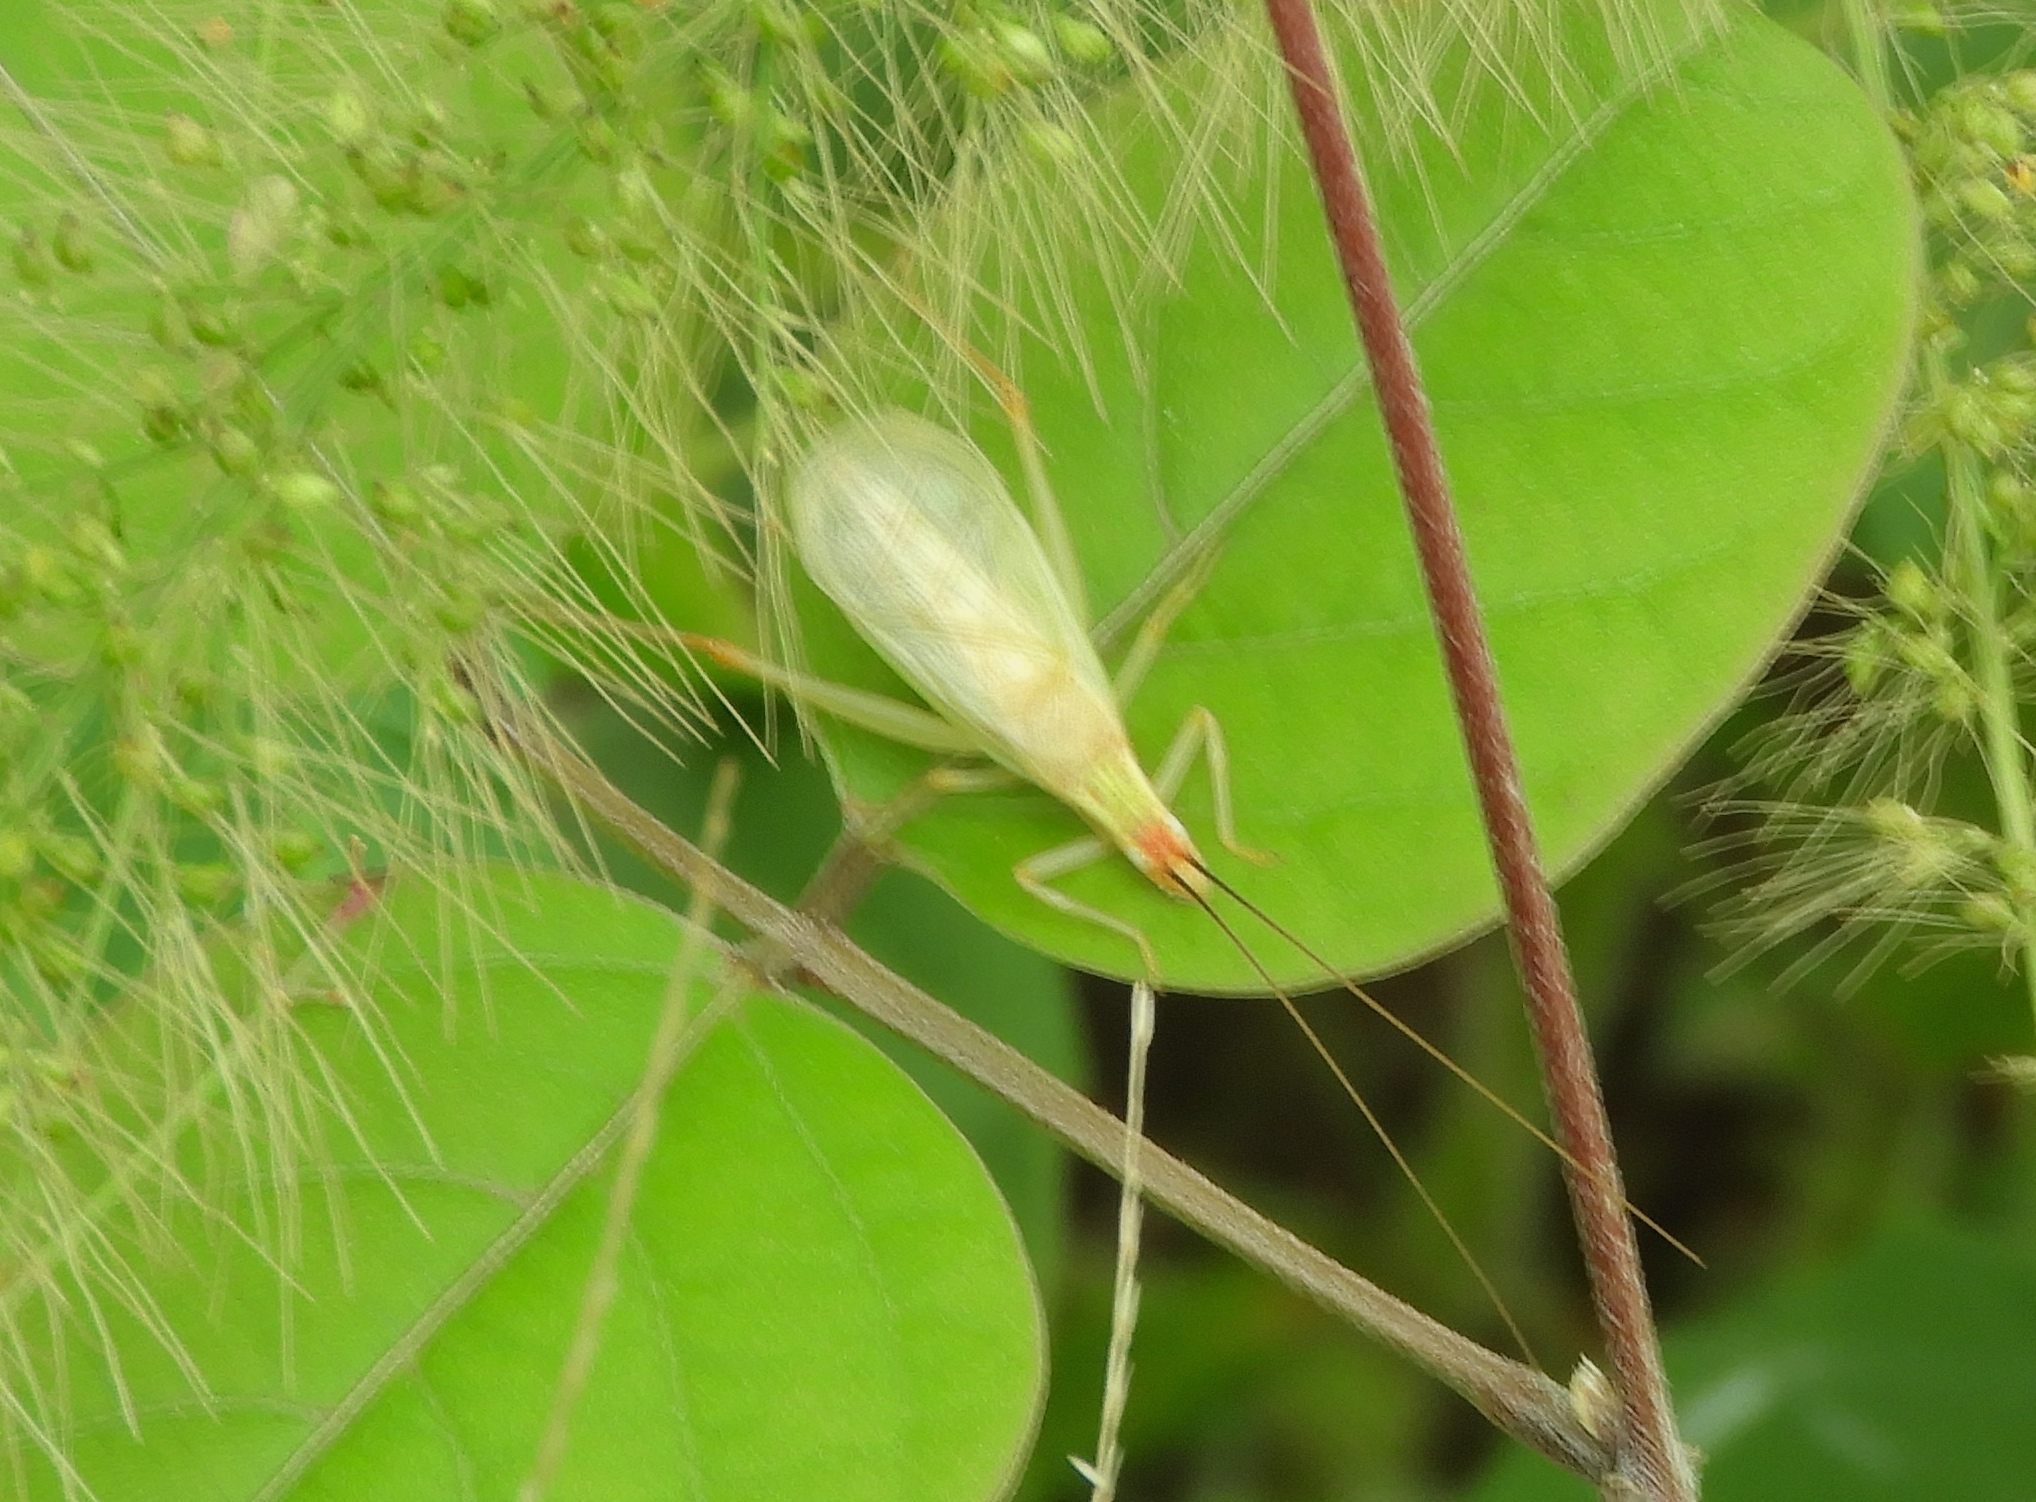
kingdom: Animalia
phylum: Arthropoda
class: Insecta
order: Orthoptera
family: Gryllidae
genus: Oecanthus
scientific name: Oecanthus
